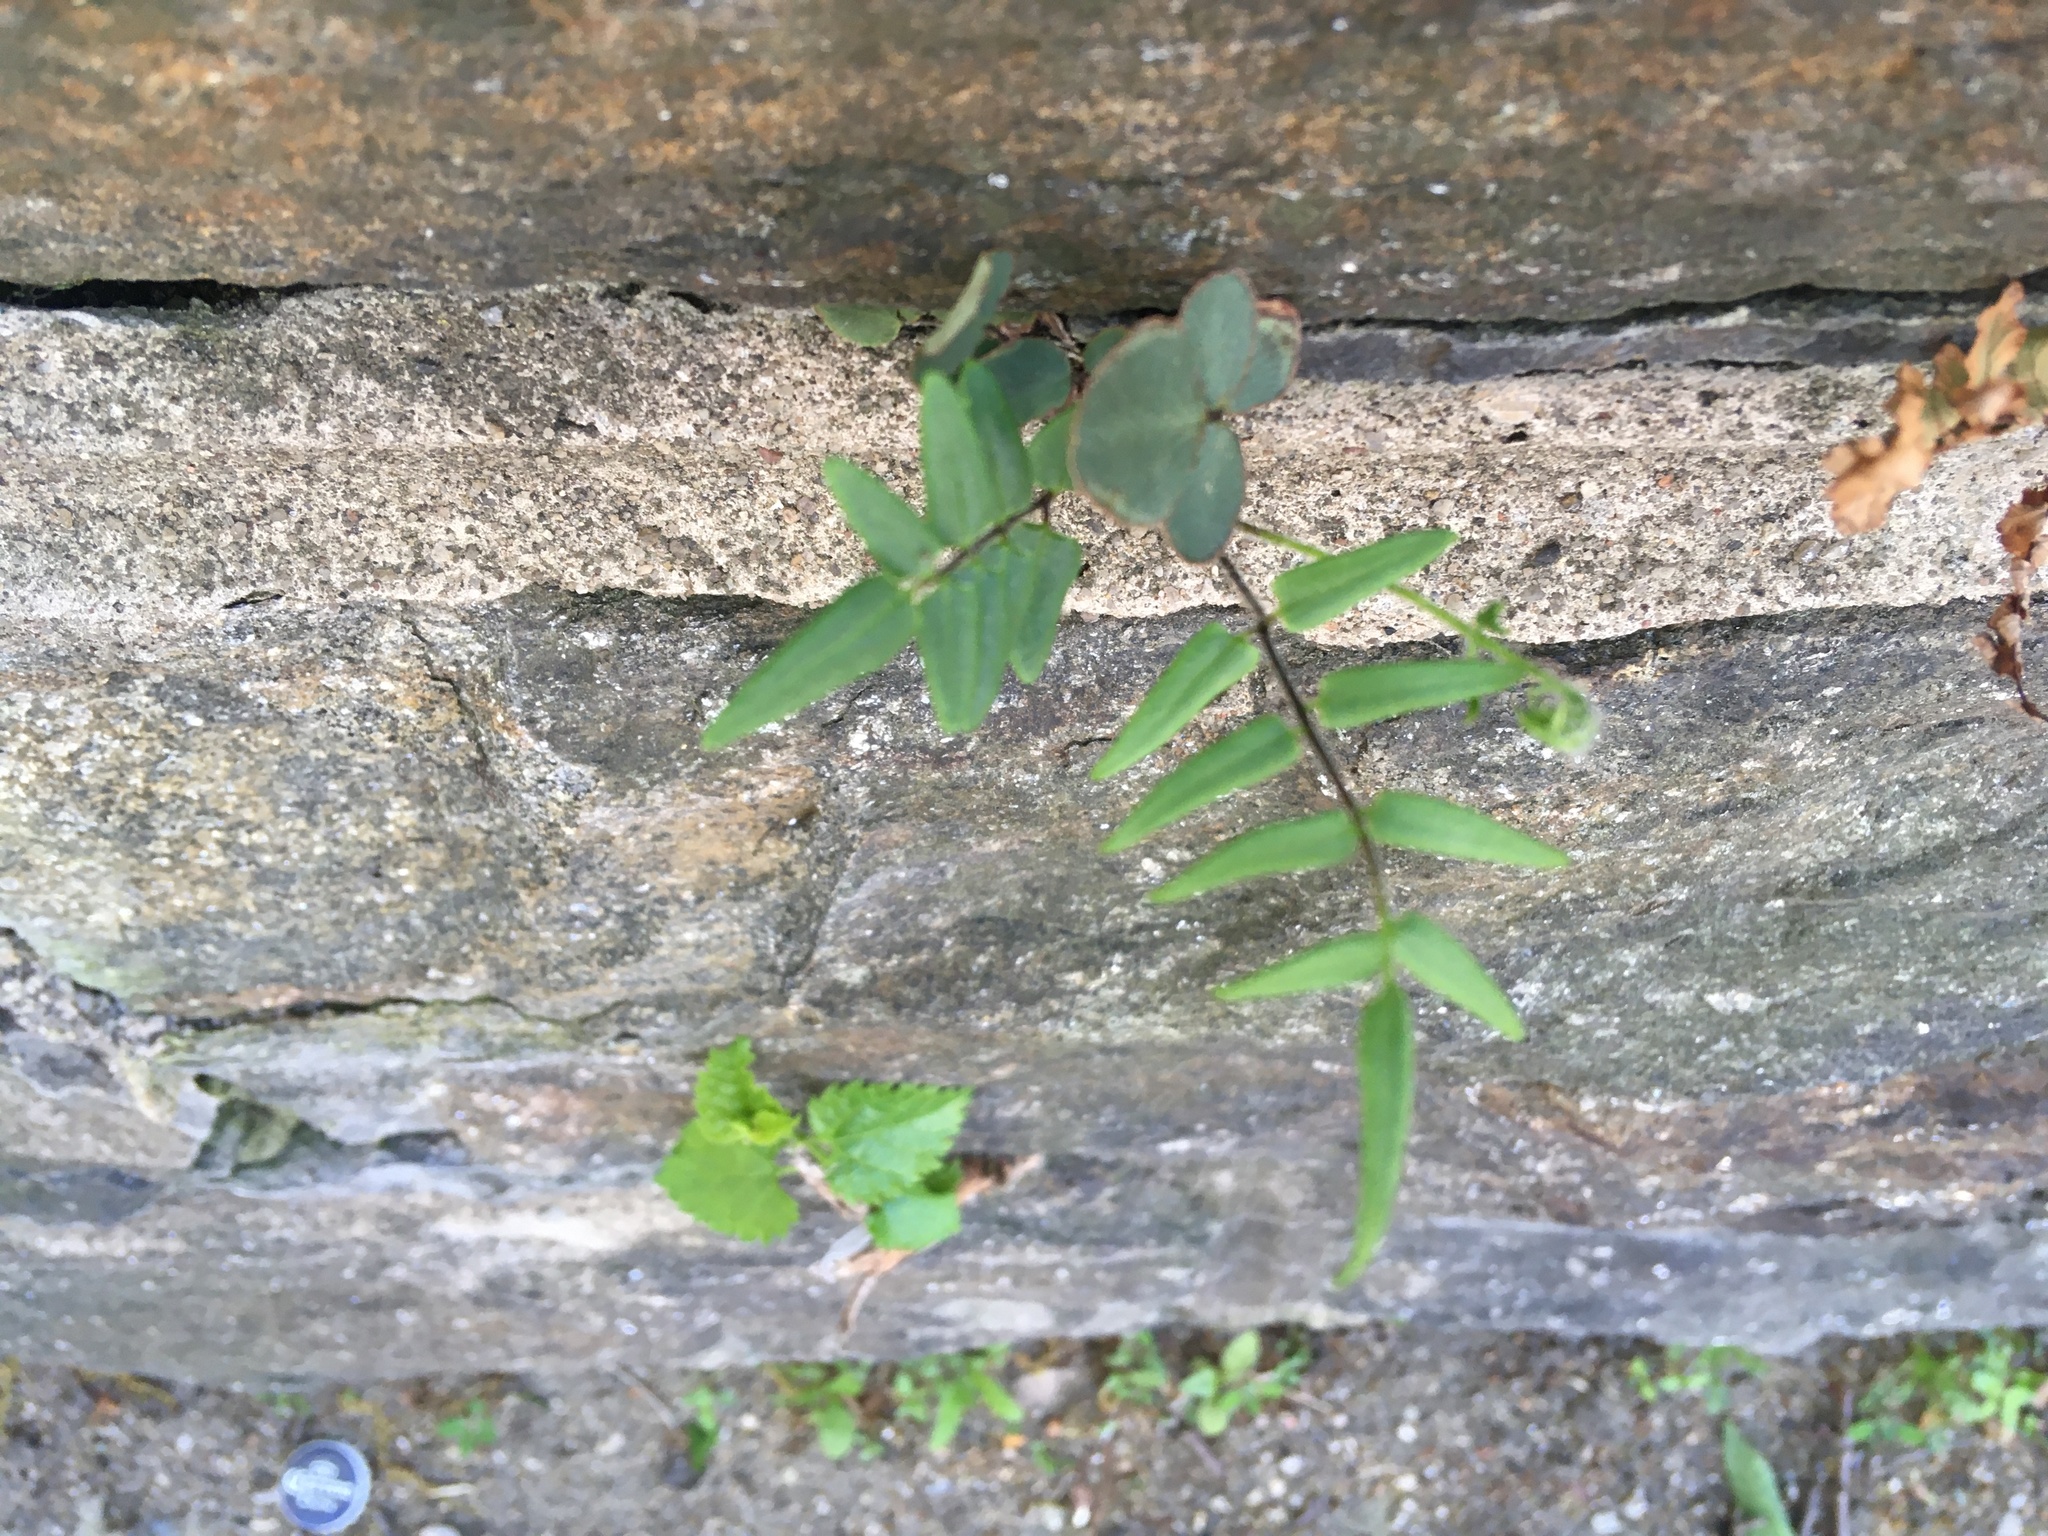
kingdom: Plantae
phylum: Tracheophyta
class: Polypodiopsida
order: Polypodiales
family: Pteridaceae
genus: Pellaea
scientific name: Pellaea atropurpurea
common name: Hairy cliffbrake
